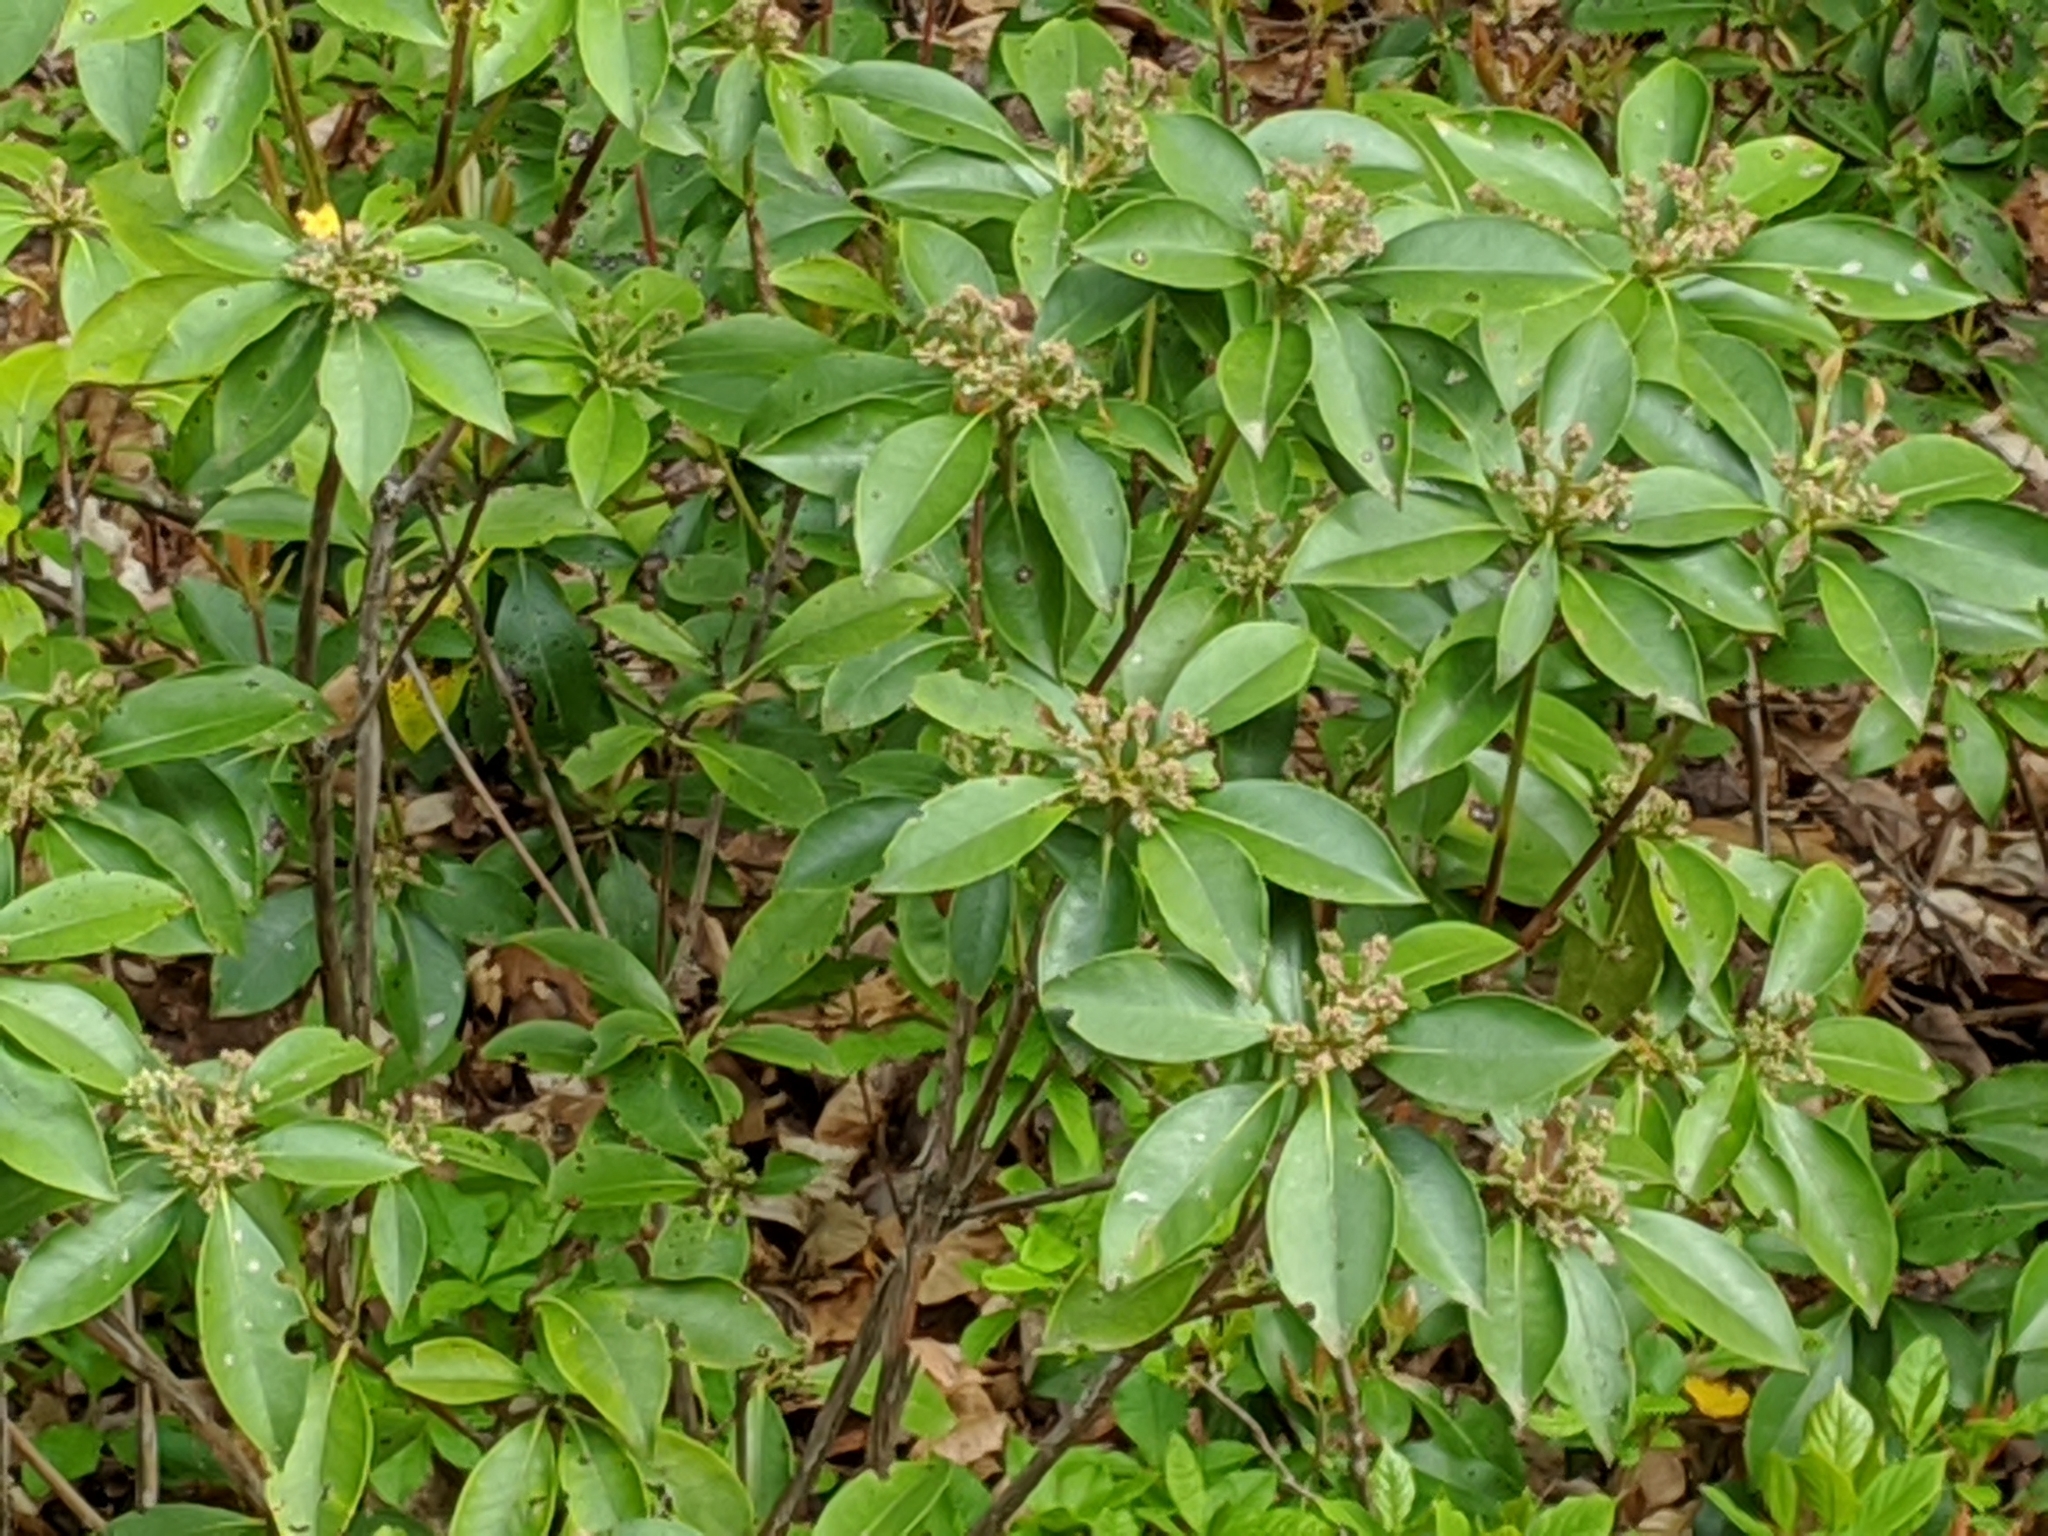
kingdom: Plantae
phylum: Tracheophyta
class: Magnoliopsida
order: Ericales
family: Ericaceae
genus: Kalmia
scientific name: Kalmia latifolia
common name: Mountain-laurel
